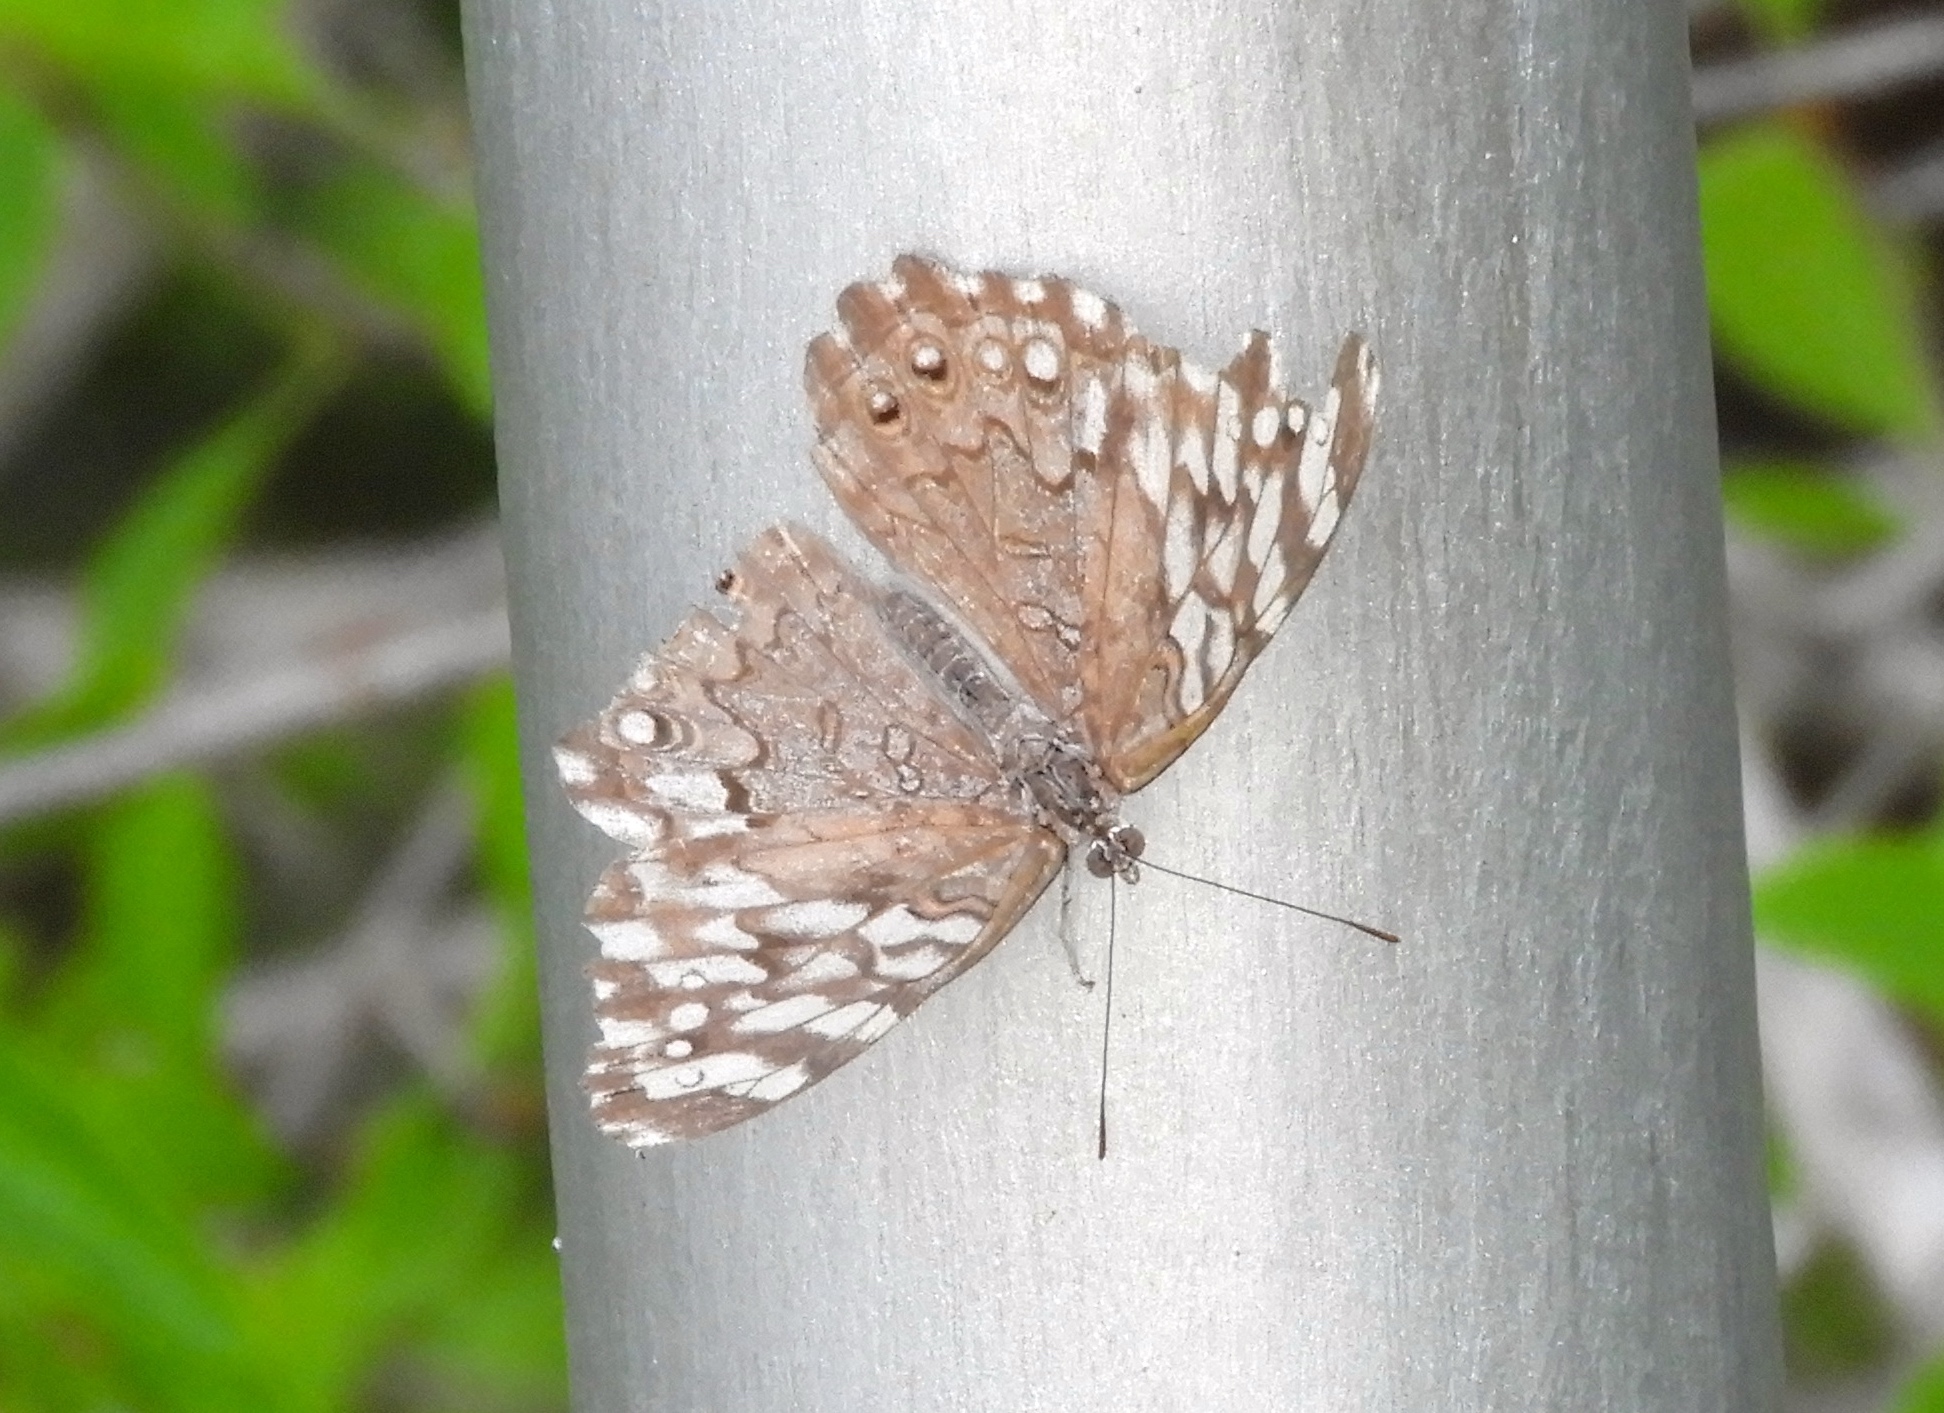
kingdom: Animalia
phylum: Arthropoda
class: Insecta
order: Lepidoptera
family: Nymphalidae
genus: Hamadryas
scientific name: Hamadryas februa
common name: Gray cracker
